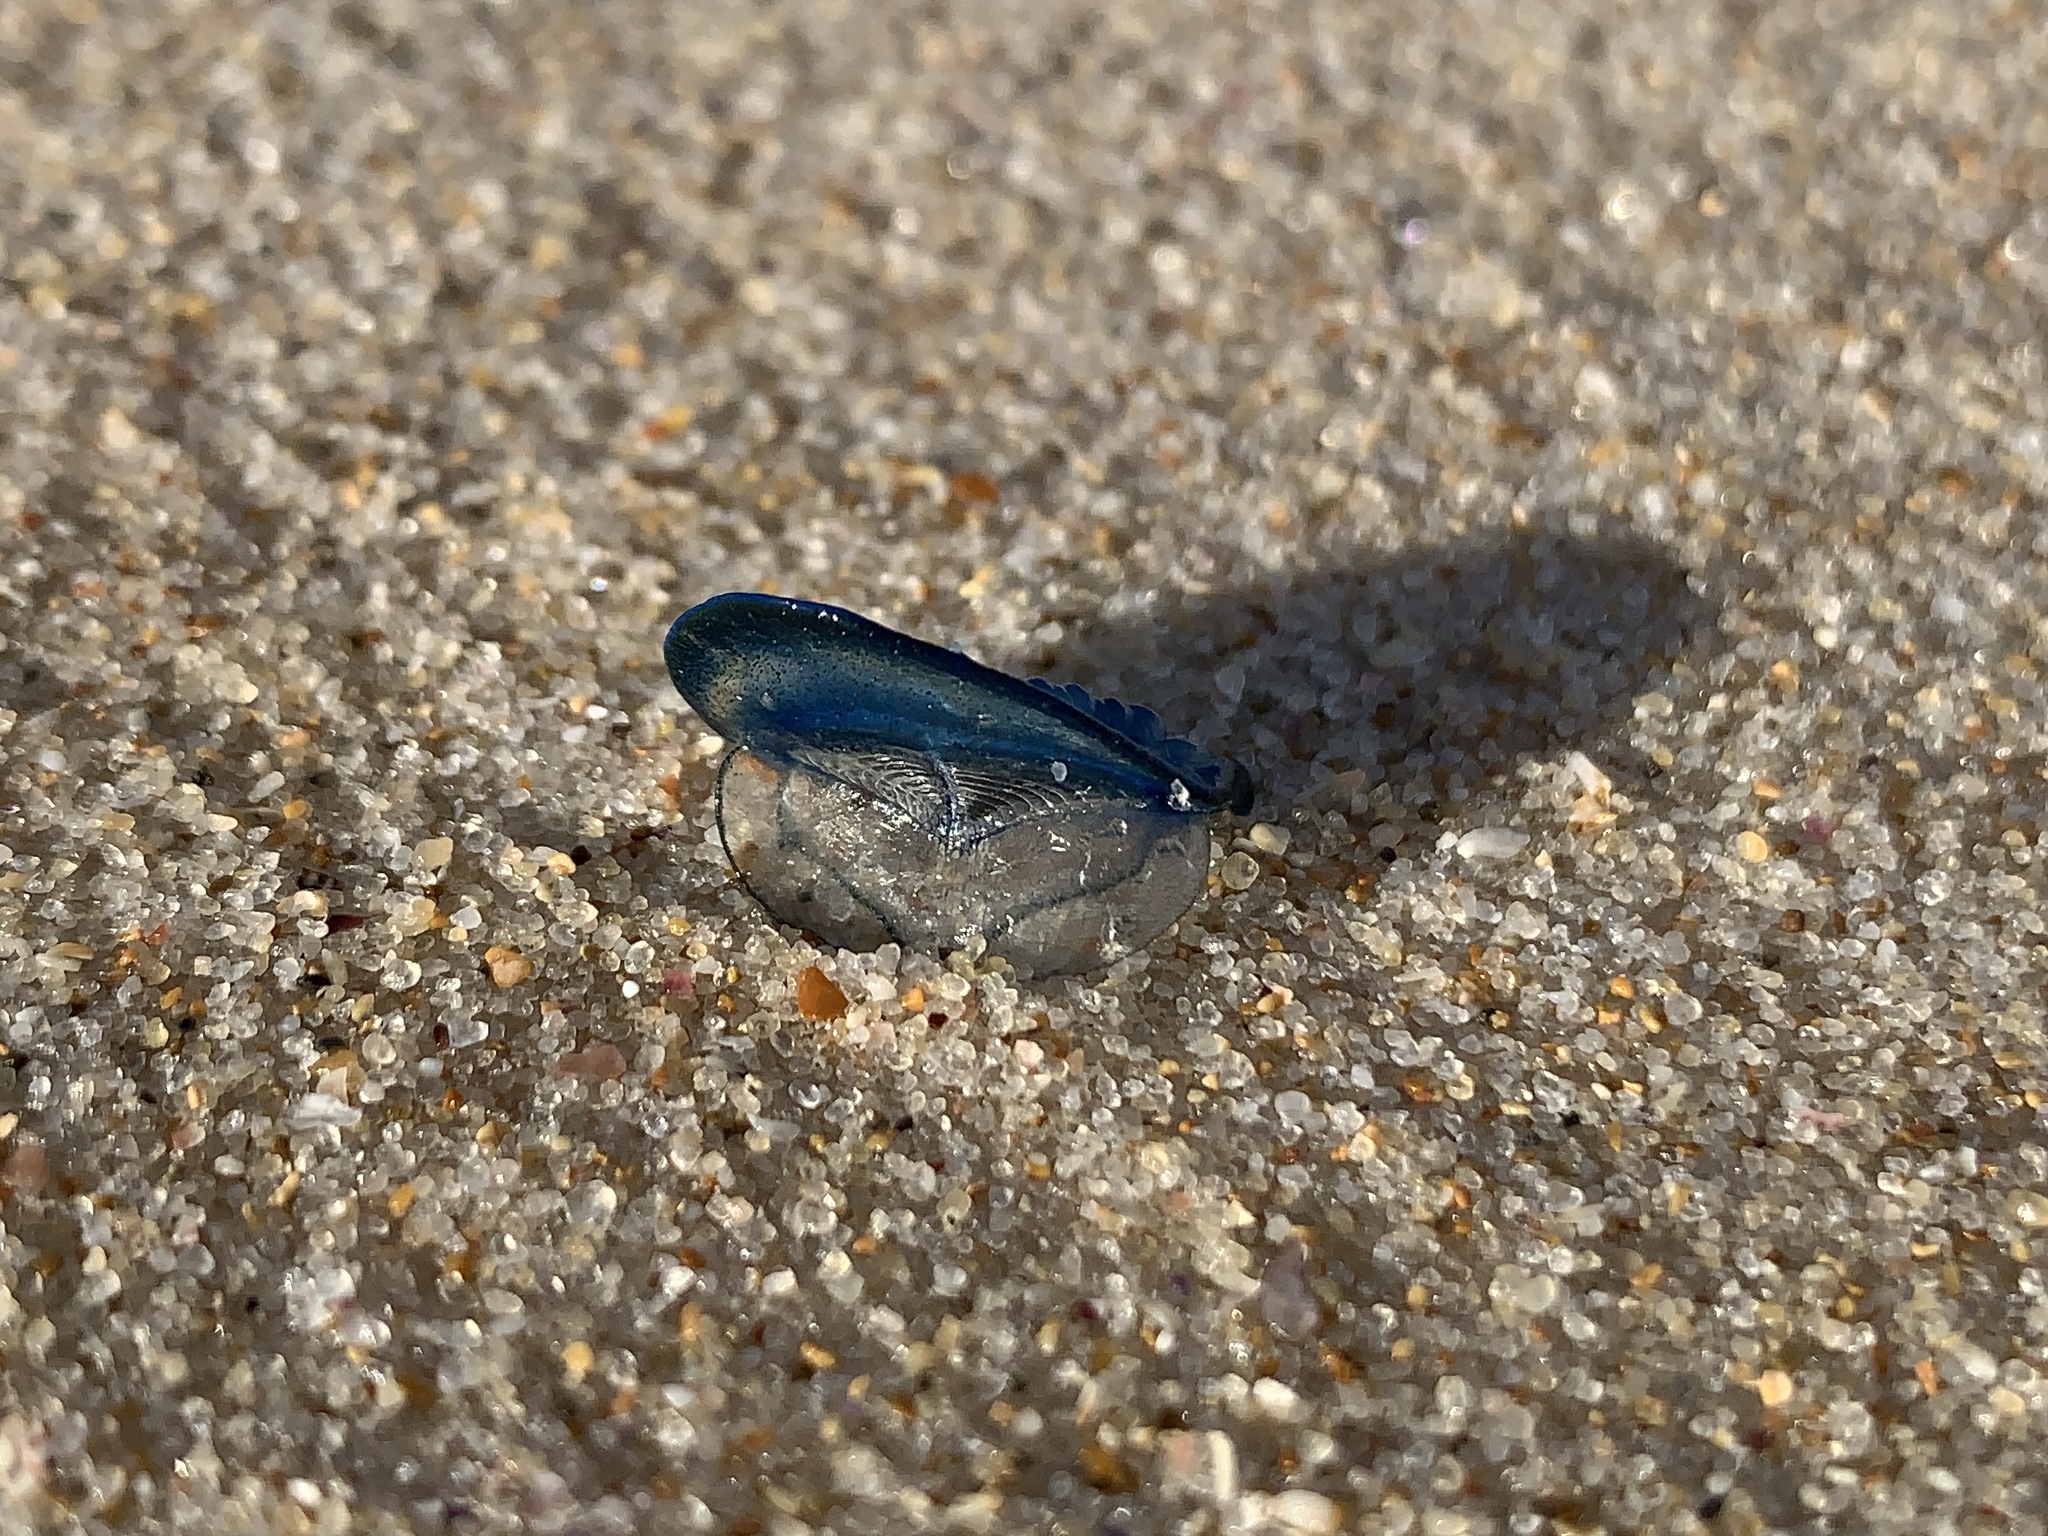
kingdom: Animalia
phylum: Cnidaria
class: Hydrozoa
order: Anthoathecata
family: Porpitidae
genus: Velella
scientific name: Velella velella
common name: By-the-wind-sailor
